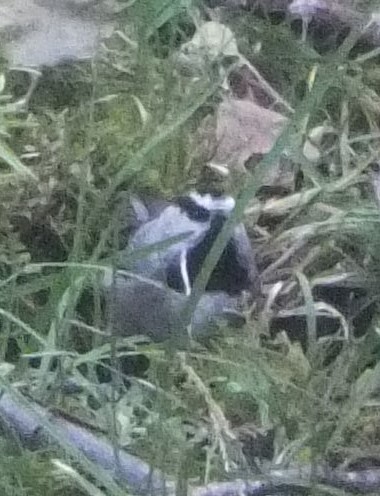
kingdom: Animalia
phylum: Chordata
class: Aves
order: Passeriformes
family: Paridae
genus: Poecile
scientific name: Poecile gambeli
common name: Mountain chickadee
